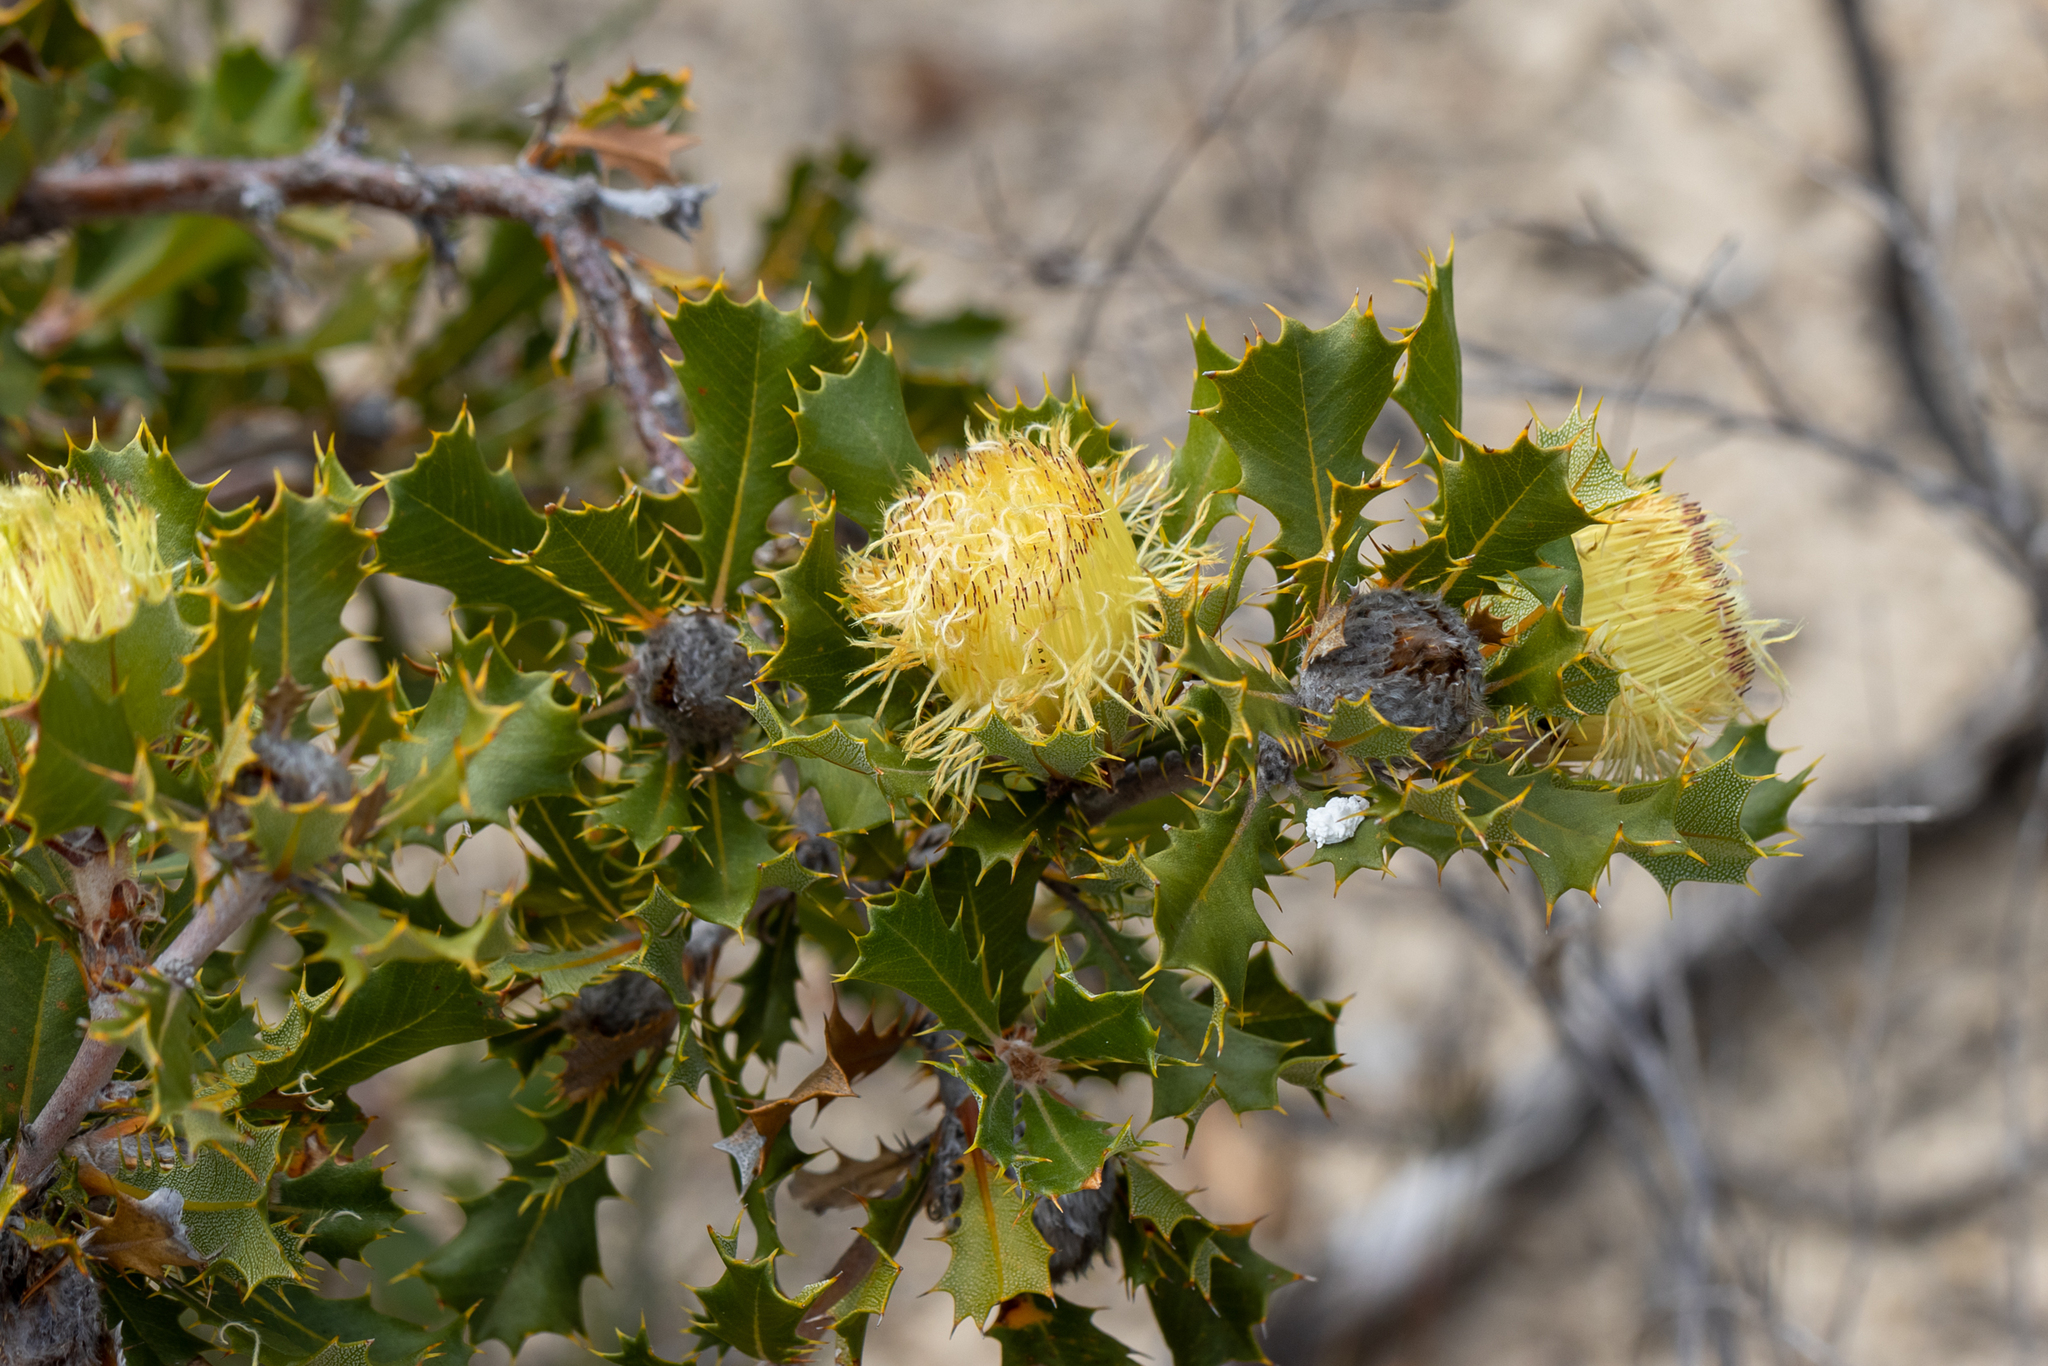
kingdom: Plantae
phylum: Tracheophyta
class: Magnoliopsida
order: Proteales
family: Proteaceae
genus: Banksia
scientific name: Banksia obovata
